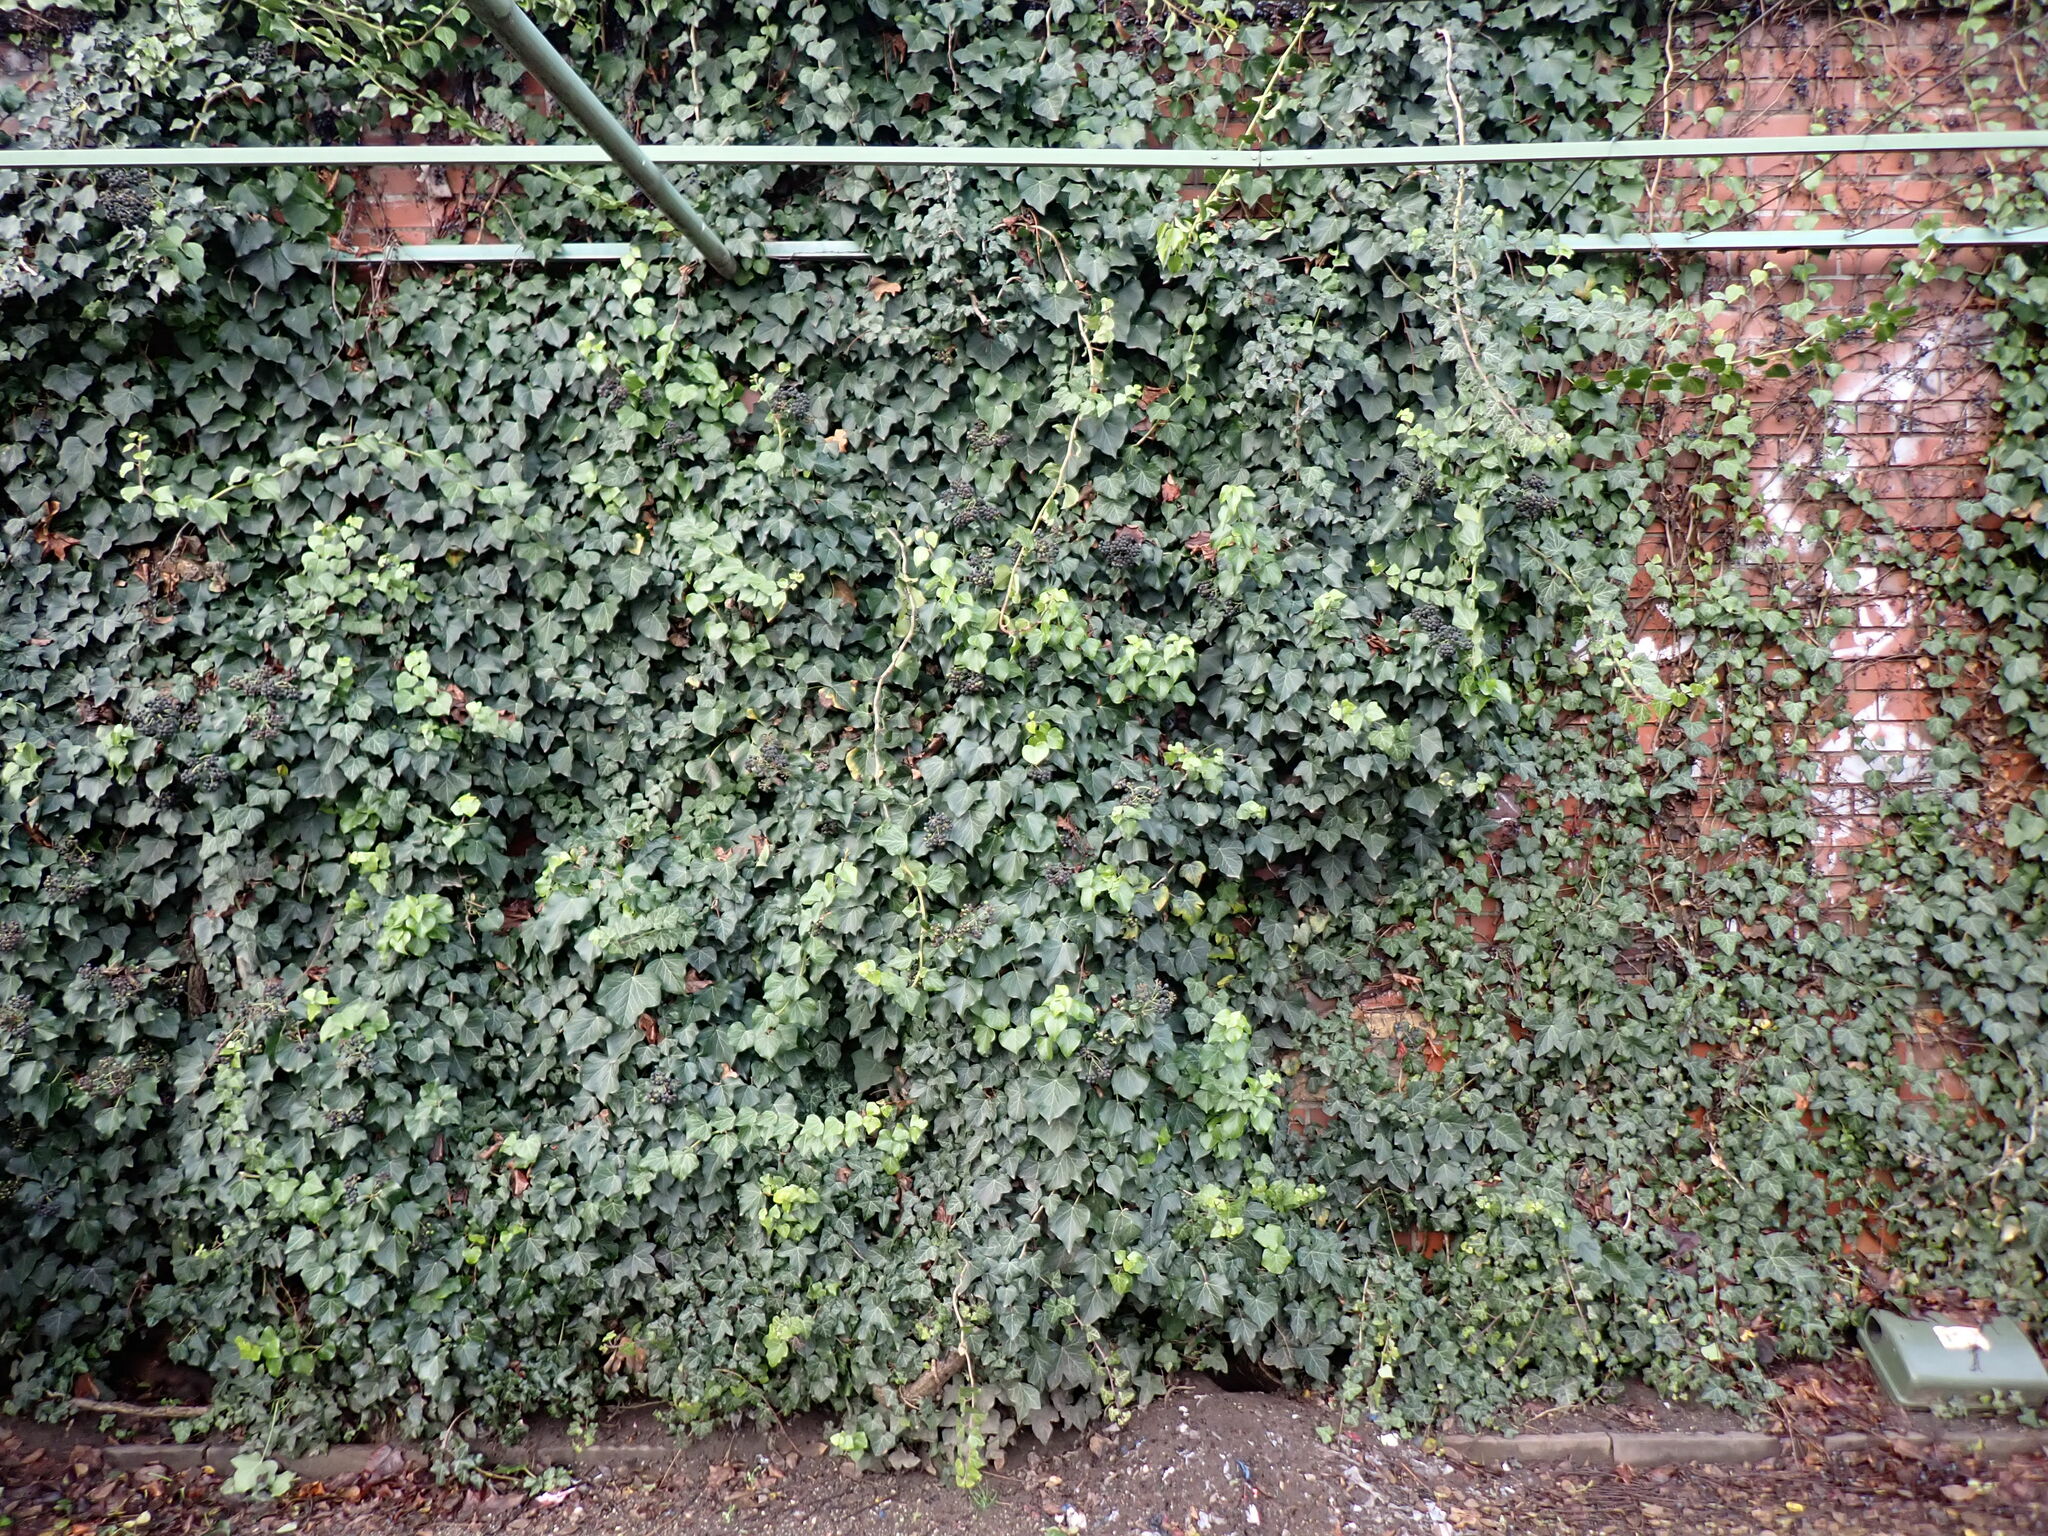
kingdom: Animalia
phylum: Arthropoda
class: Insecta
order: Hemiptera
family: Cicadellidae
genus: Synophropsis
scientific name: Synophropsis lauri
